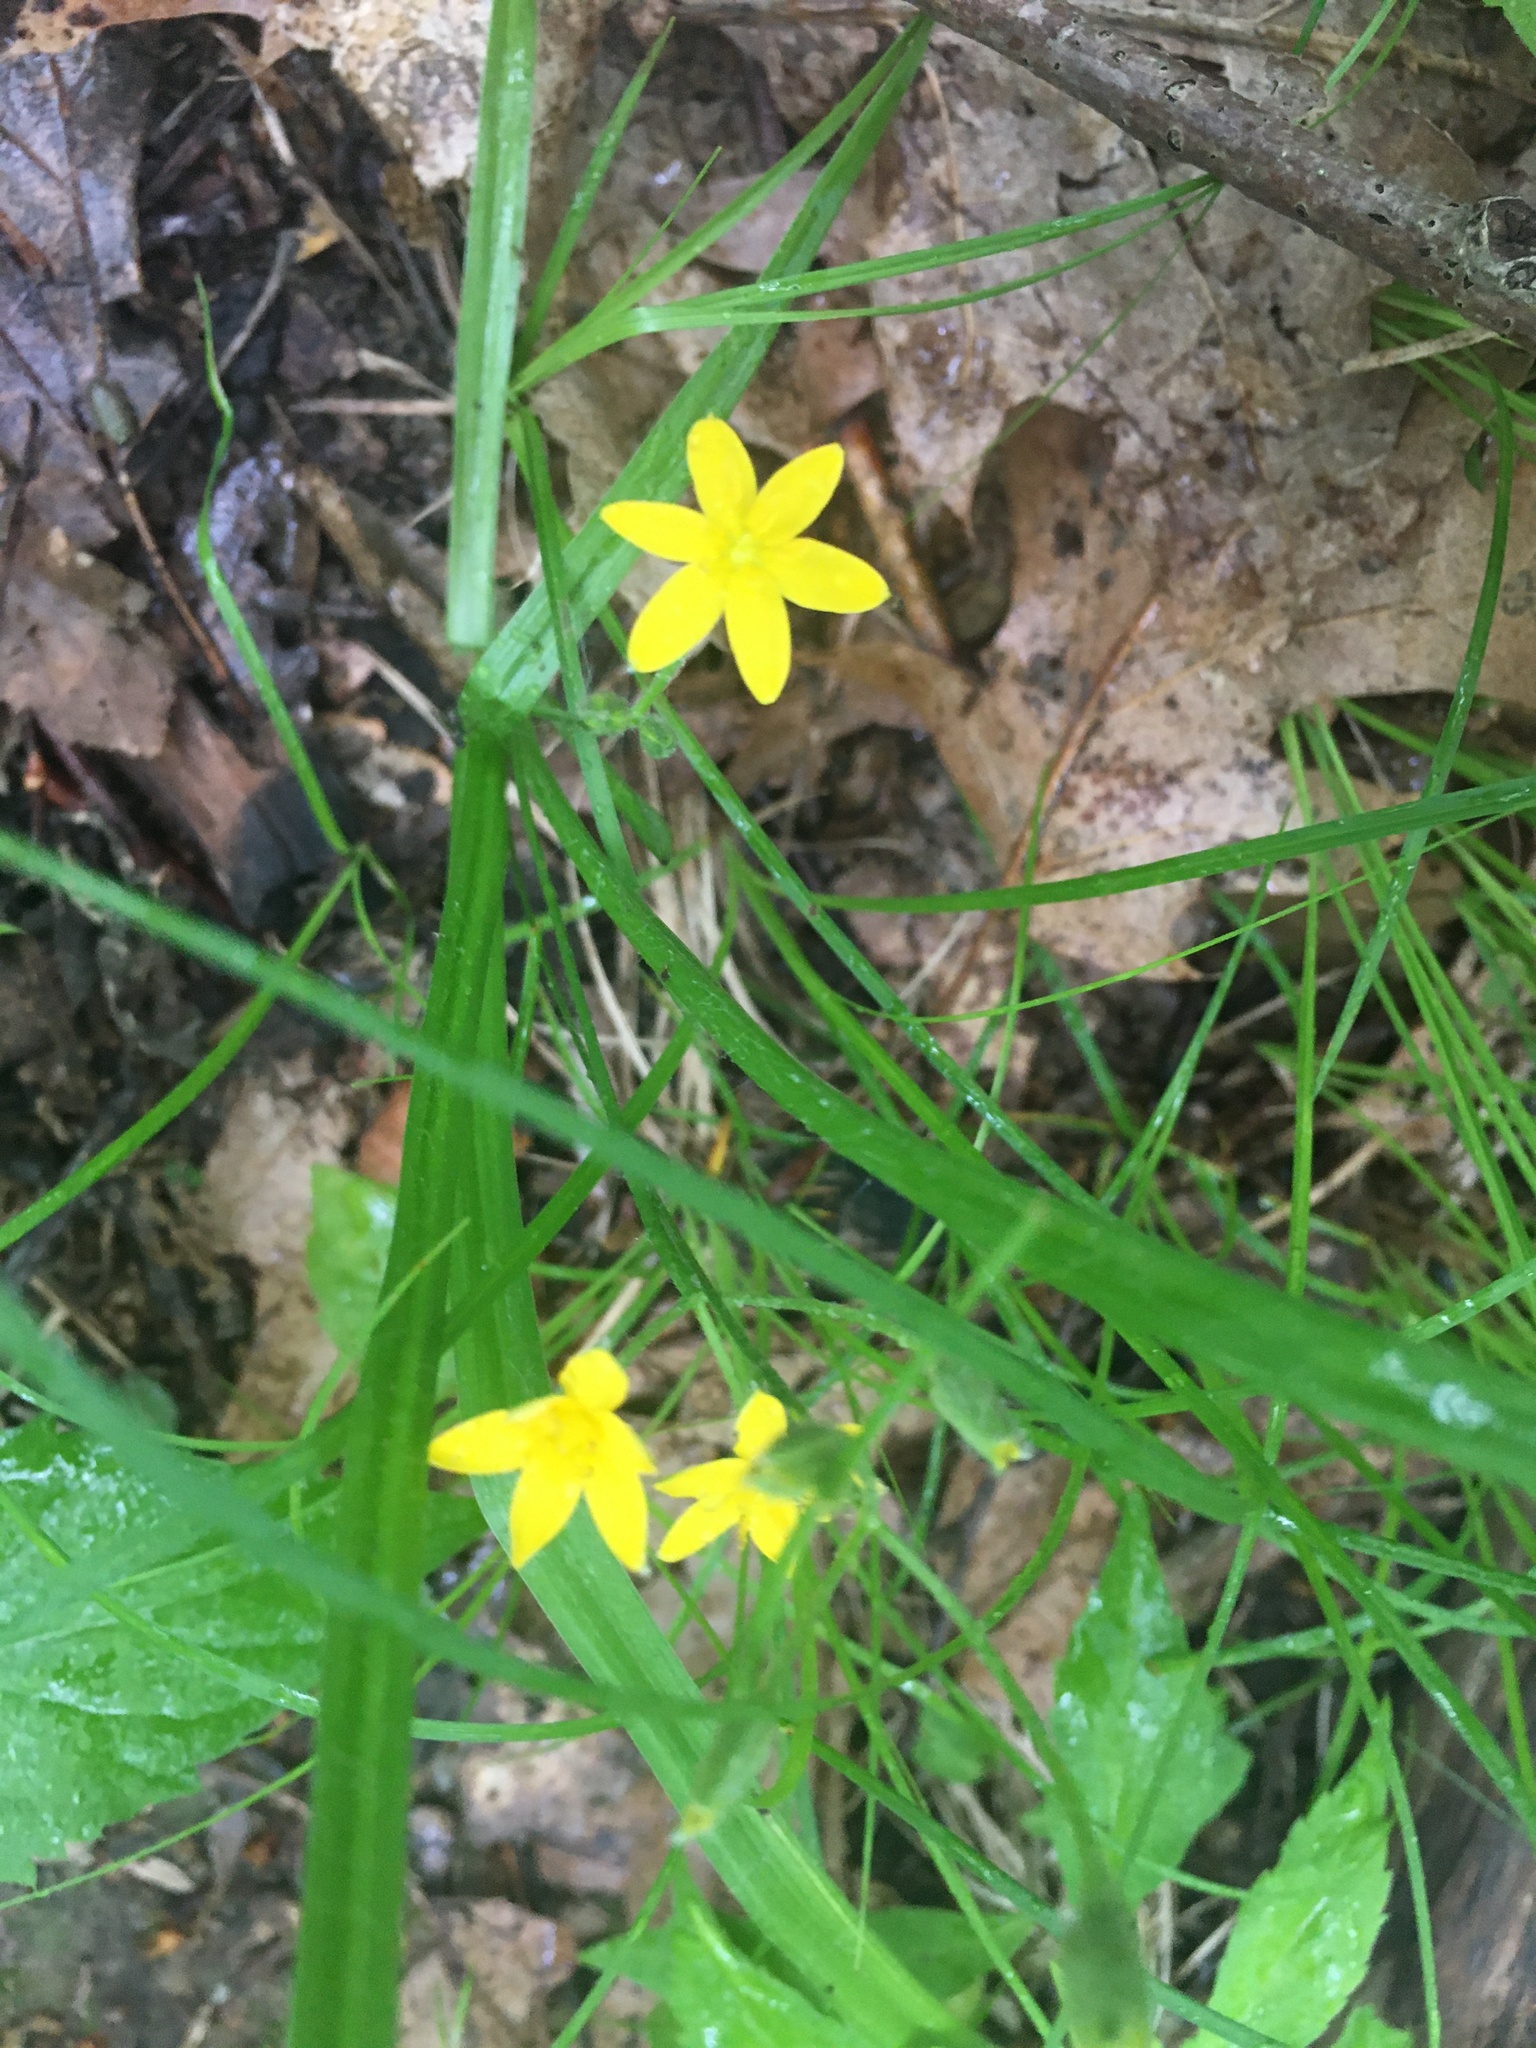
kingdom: Plantae
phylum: Tracheophyta
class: Liliopsida
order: Asparagales
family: Hypoxidaceae
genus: Hypoxis
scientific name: Hypoxis hirsuta
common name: Common goldstar
